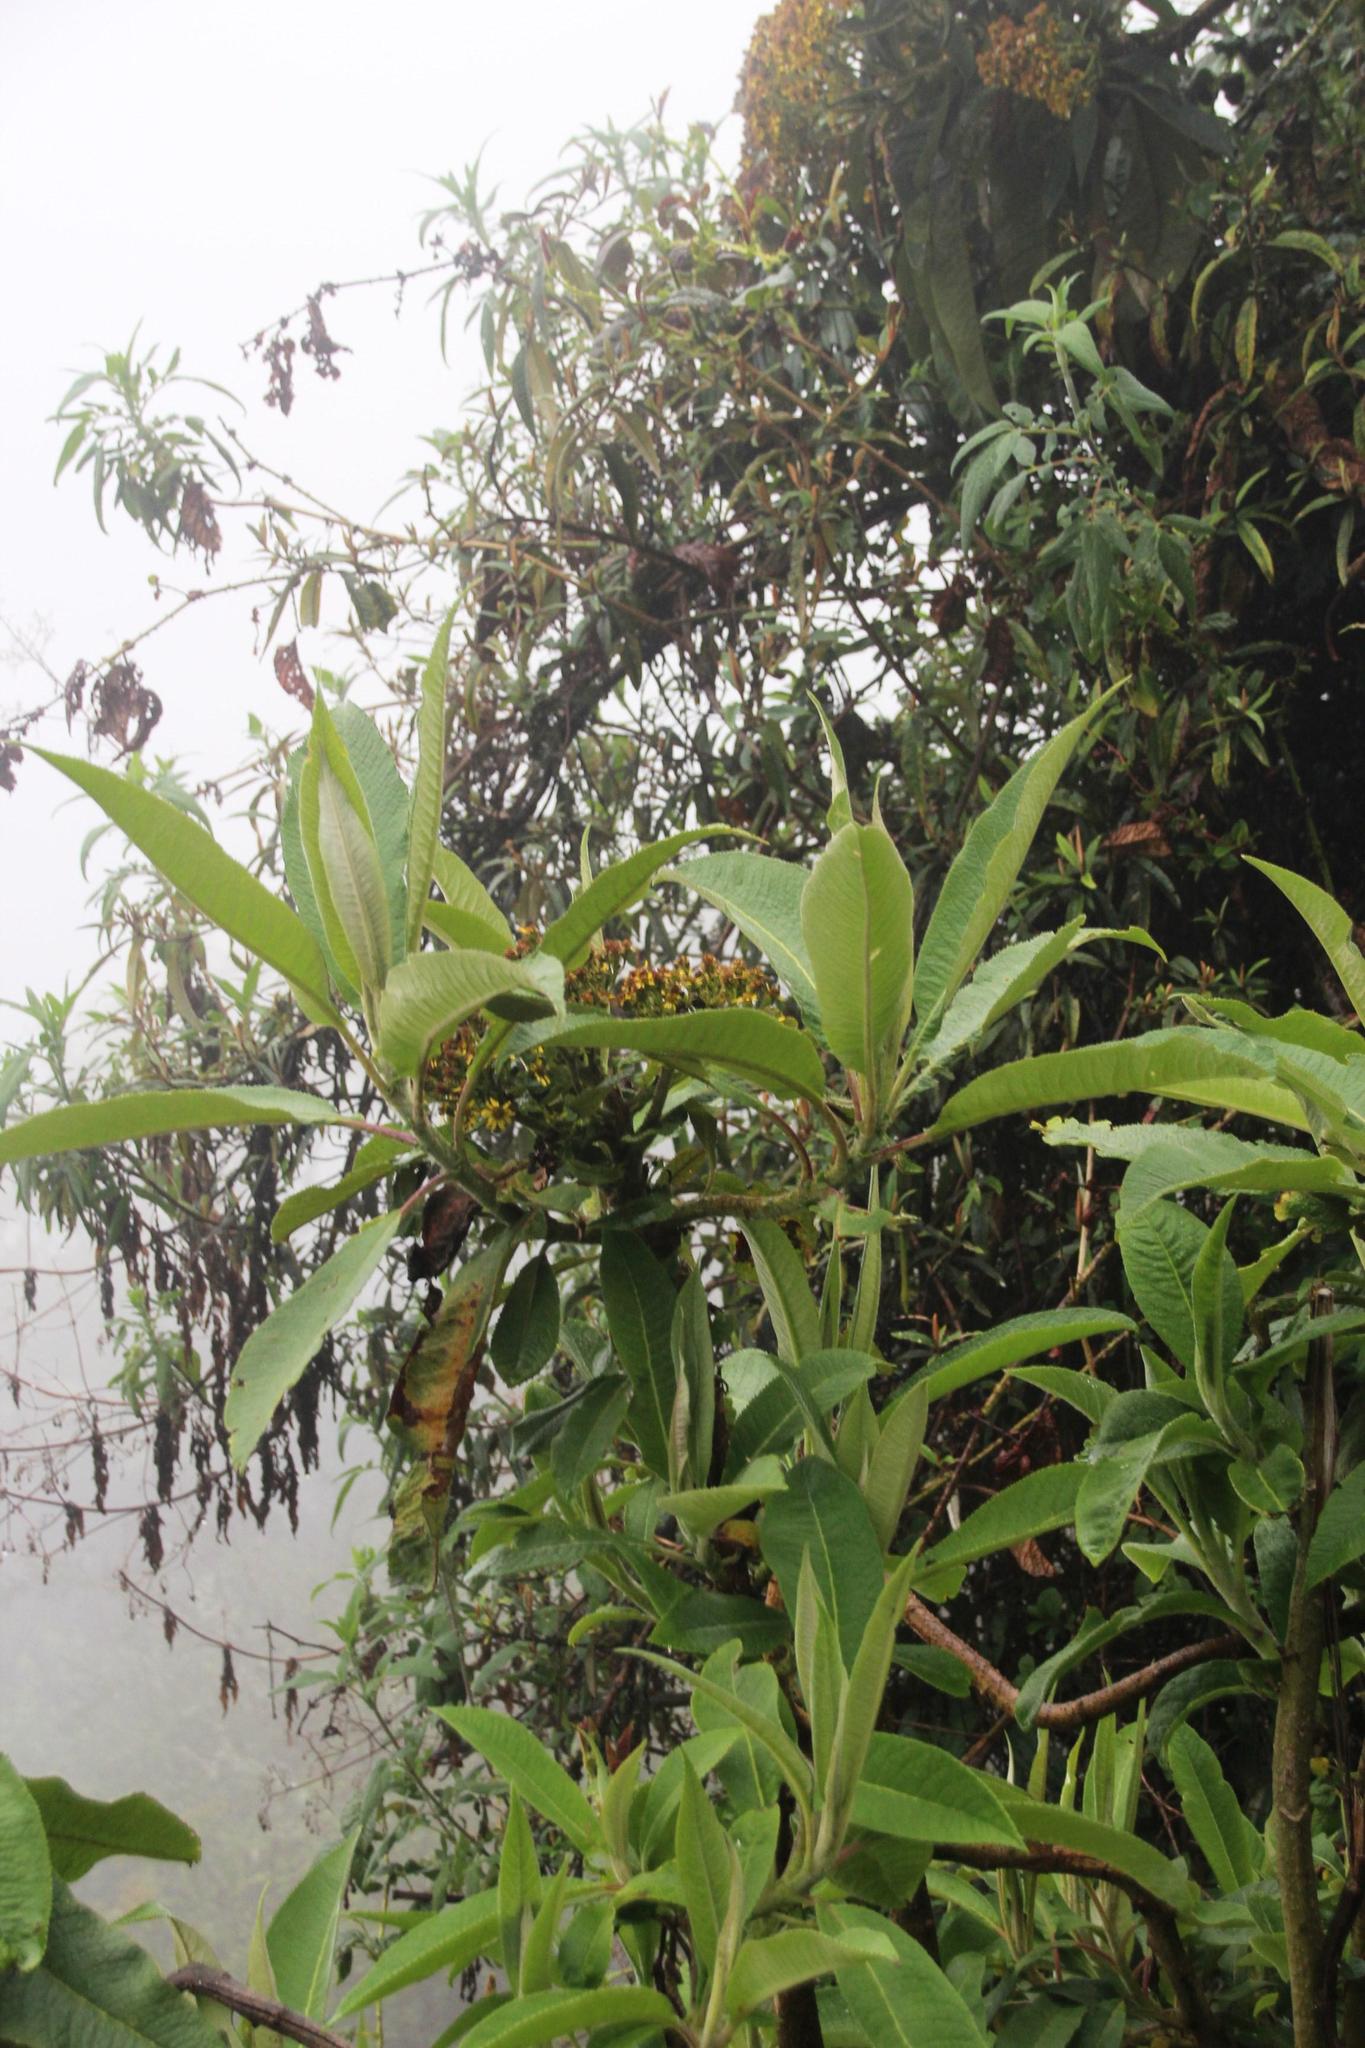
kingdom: Plantae
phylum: Tracheophyta
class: Magnoliopsida
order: Asterales
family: Asteraceae
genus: Dendrophorbium
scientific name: Dendrophorbium fortunatum
